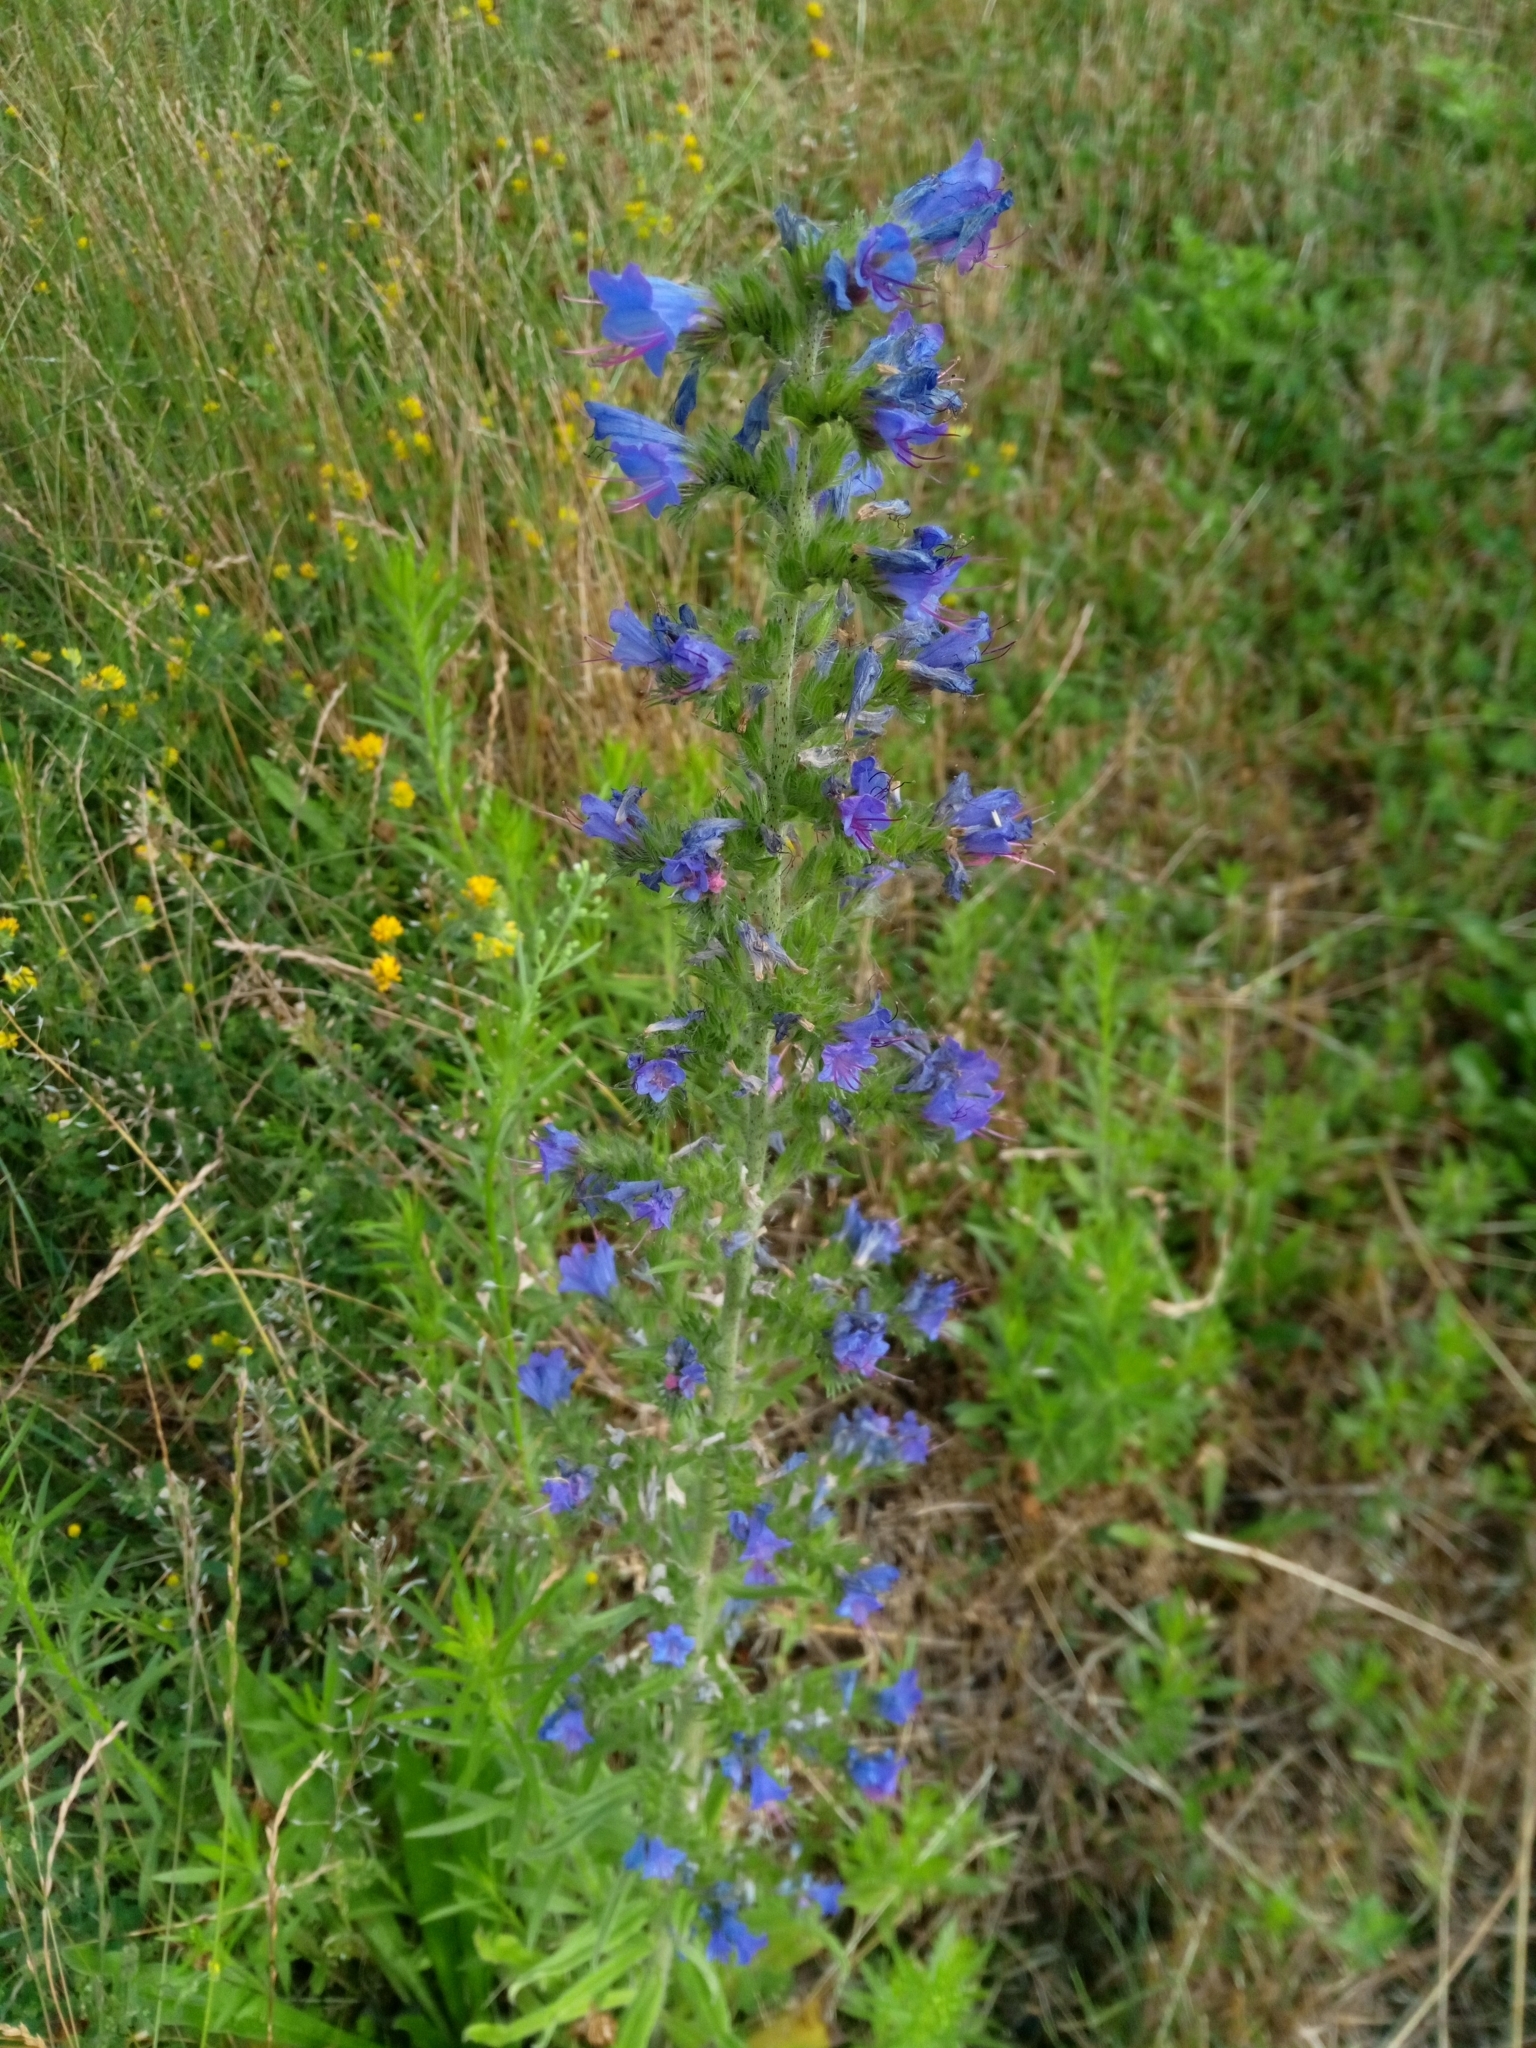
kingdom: Plantae
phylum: Tracheophyta
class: Magnoliopsida
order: Boraginales
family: Boraginaceae
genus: Echium
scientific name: Echium vulgare
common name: Common viper's bugloss
